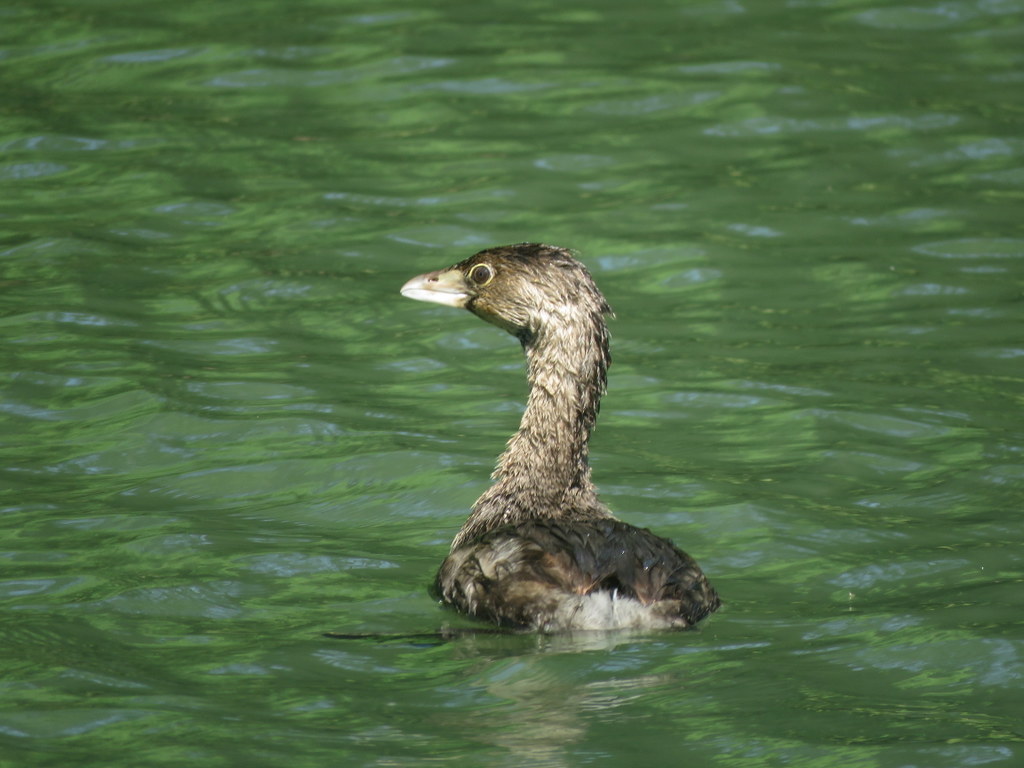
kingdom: Animalia
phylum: Chordata
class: Aves
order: Podicipediformes
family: Podicipedidae
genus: Podilymbus
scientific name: Podilymbus podiceps
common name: Pied-billed grebe
